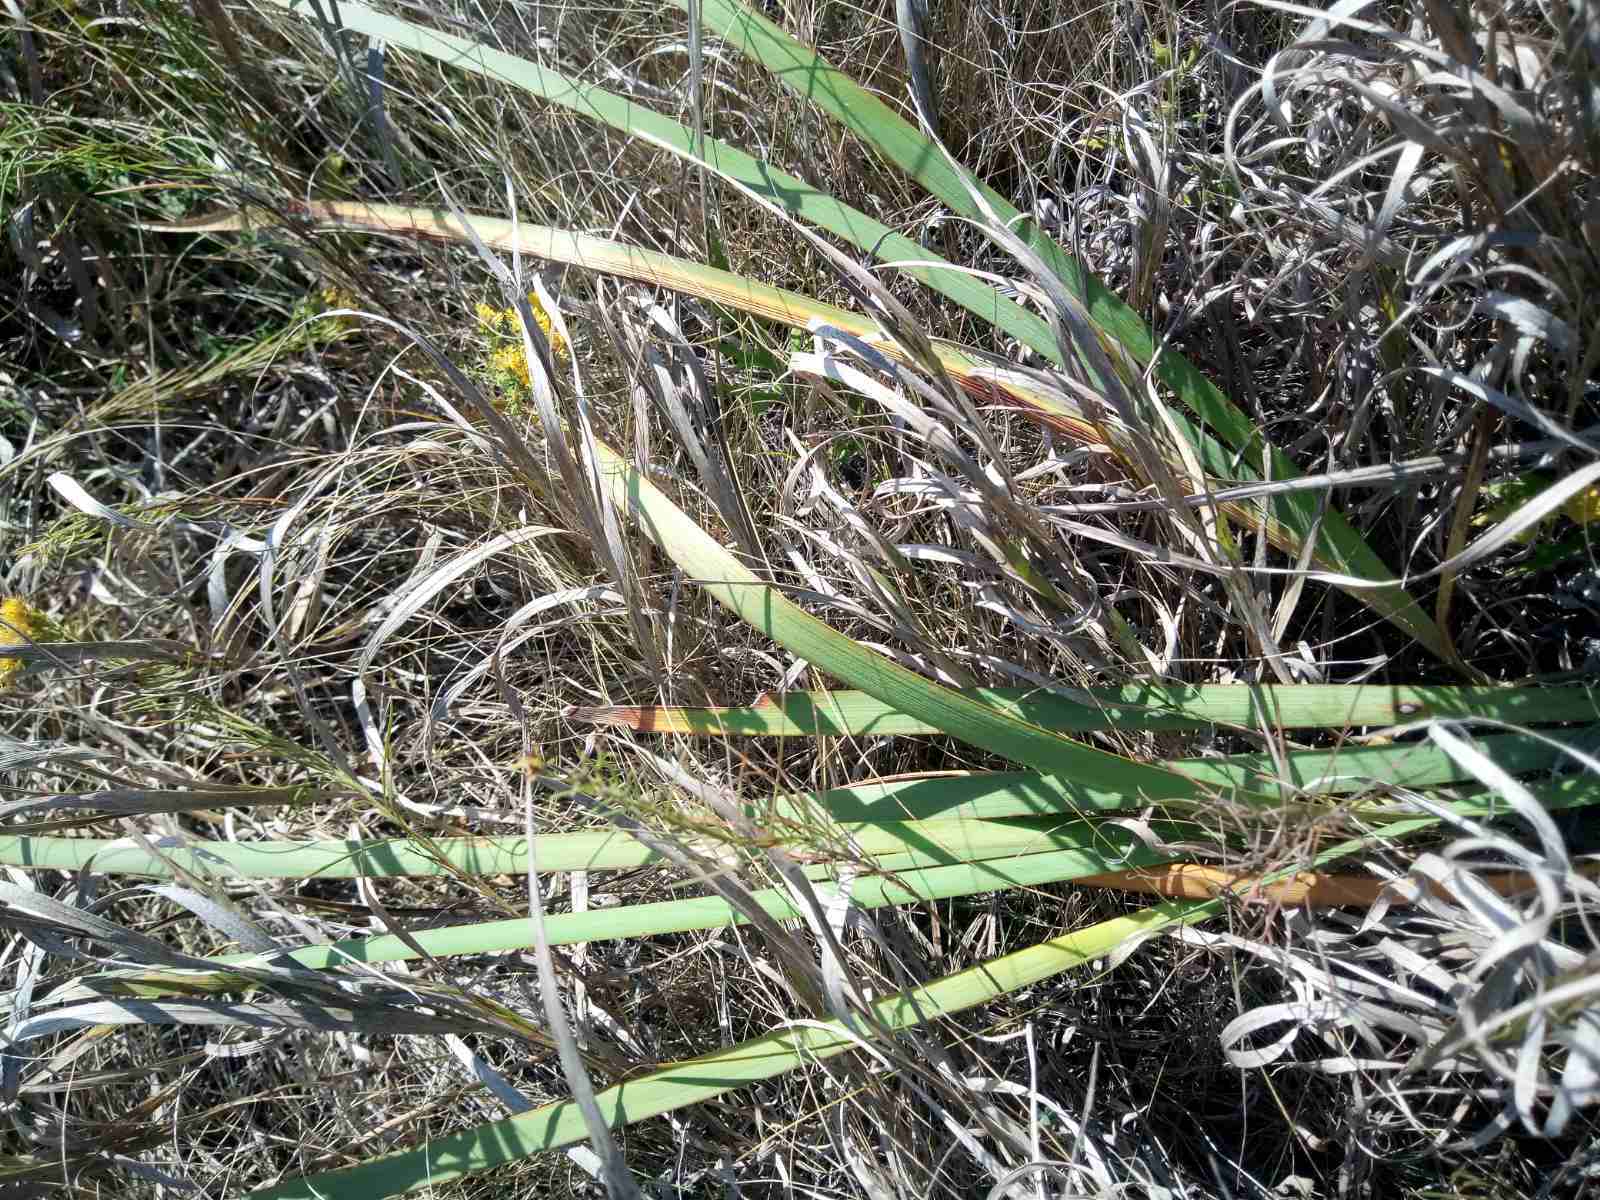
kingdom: Plantae
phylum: Tracheophyta
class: Liliopsida
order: Asparagales
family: Iridaceae
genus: Iris
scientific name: Iris halophila
